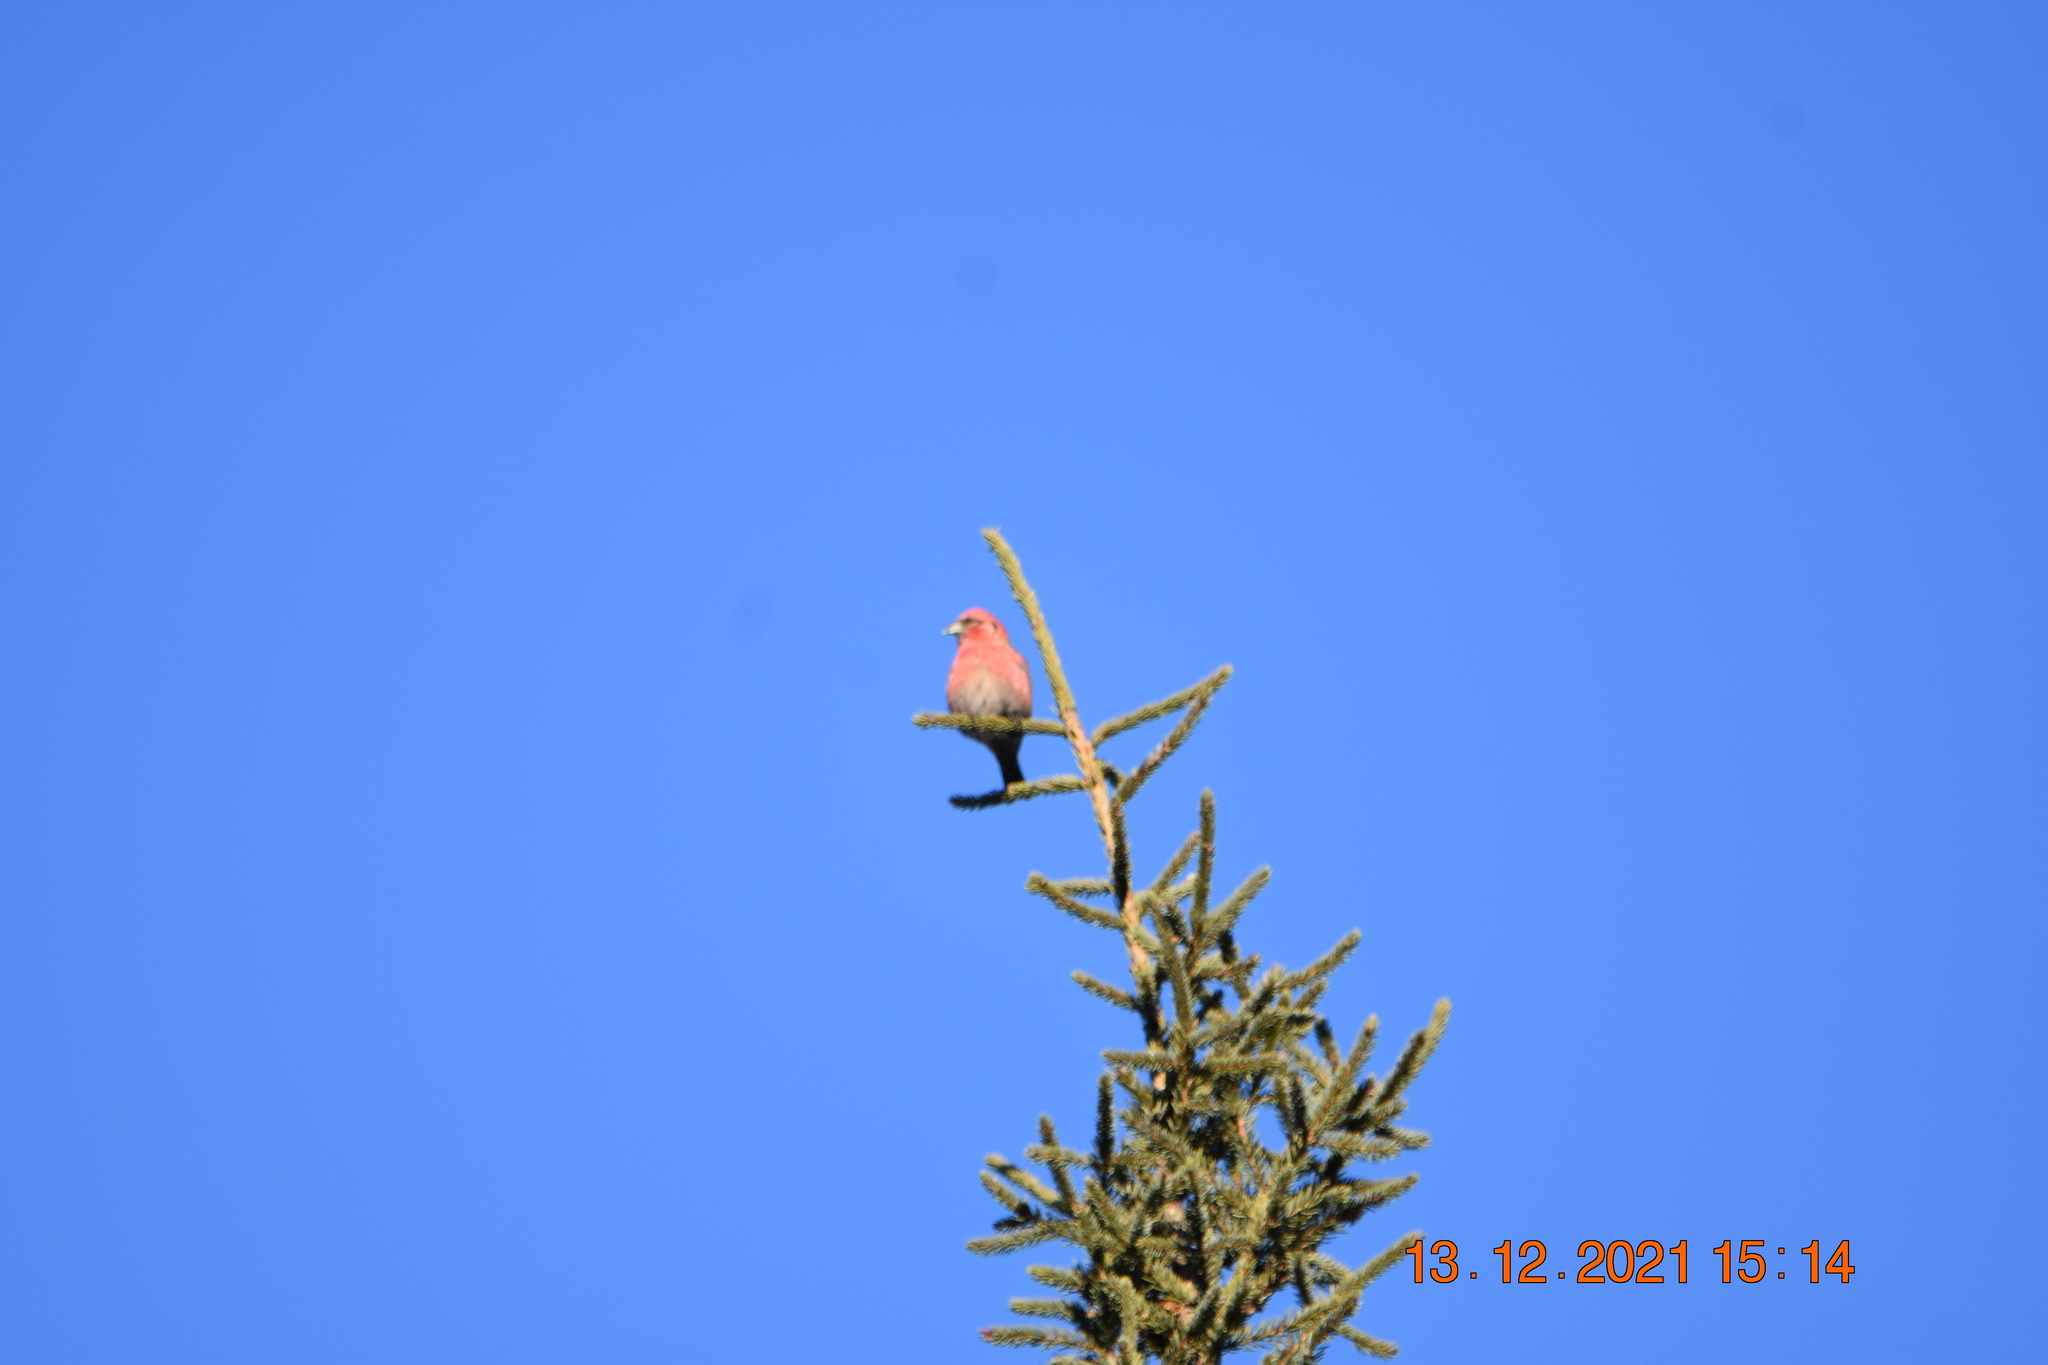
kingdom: Animalia
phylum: Chordata
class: Aves
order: Passeriformes
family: Fringillidae
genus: Loxia
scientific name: Loxia leucoptera
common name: Two-barred crossbill
